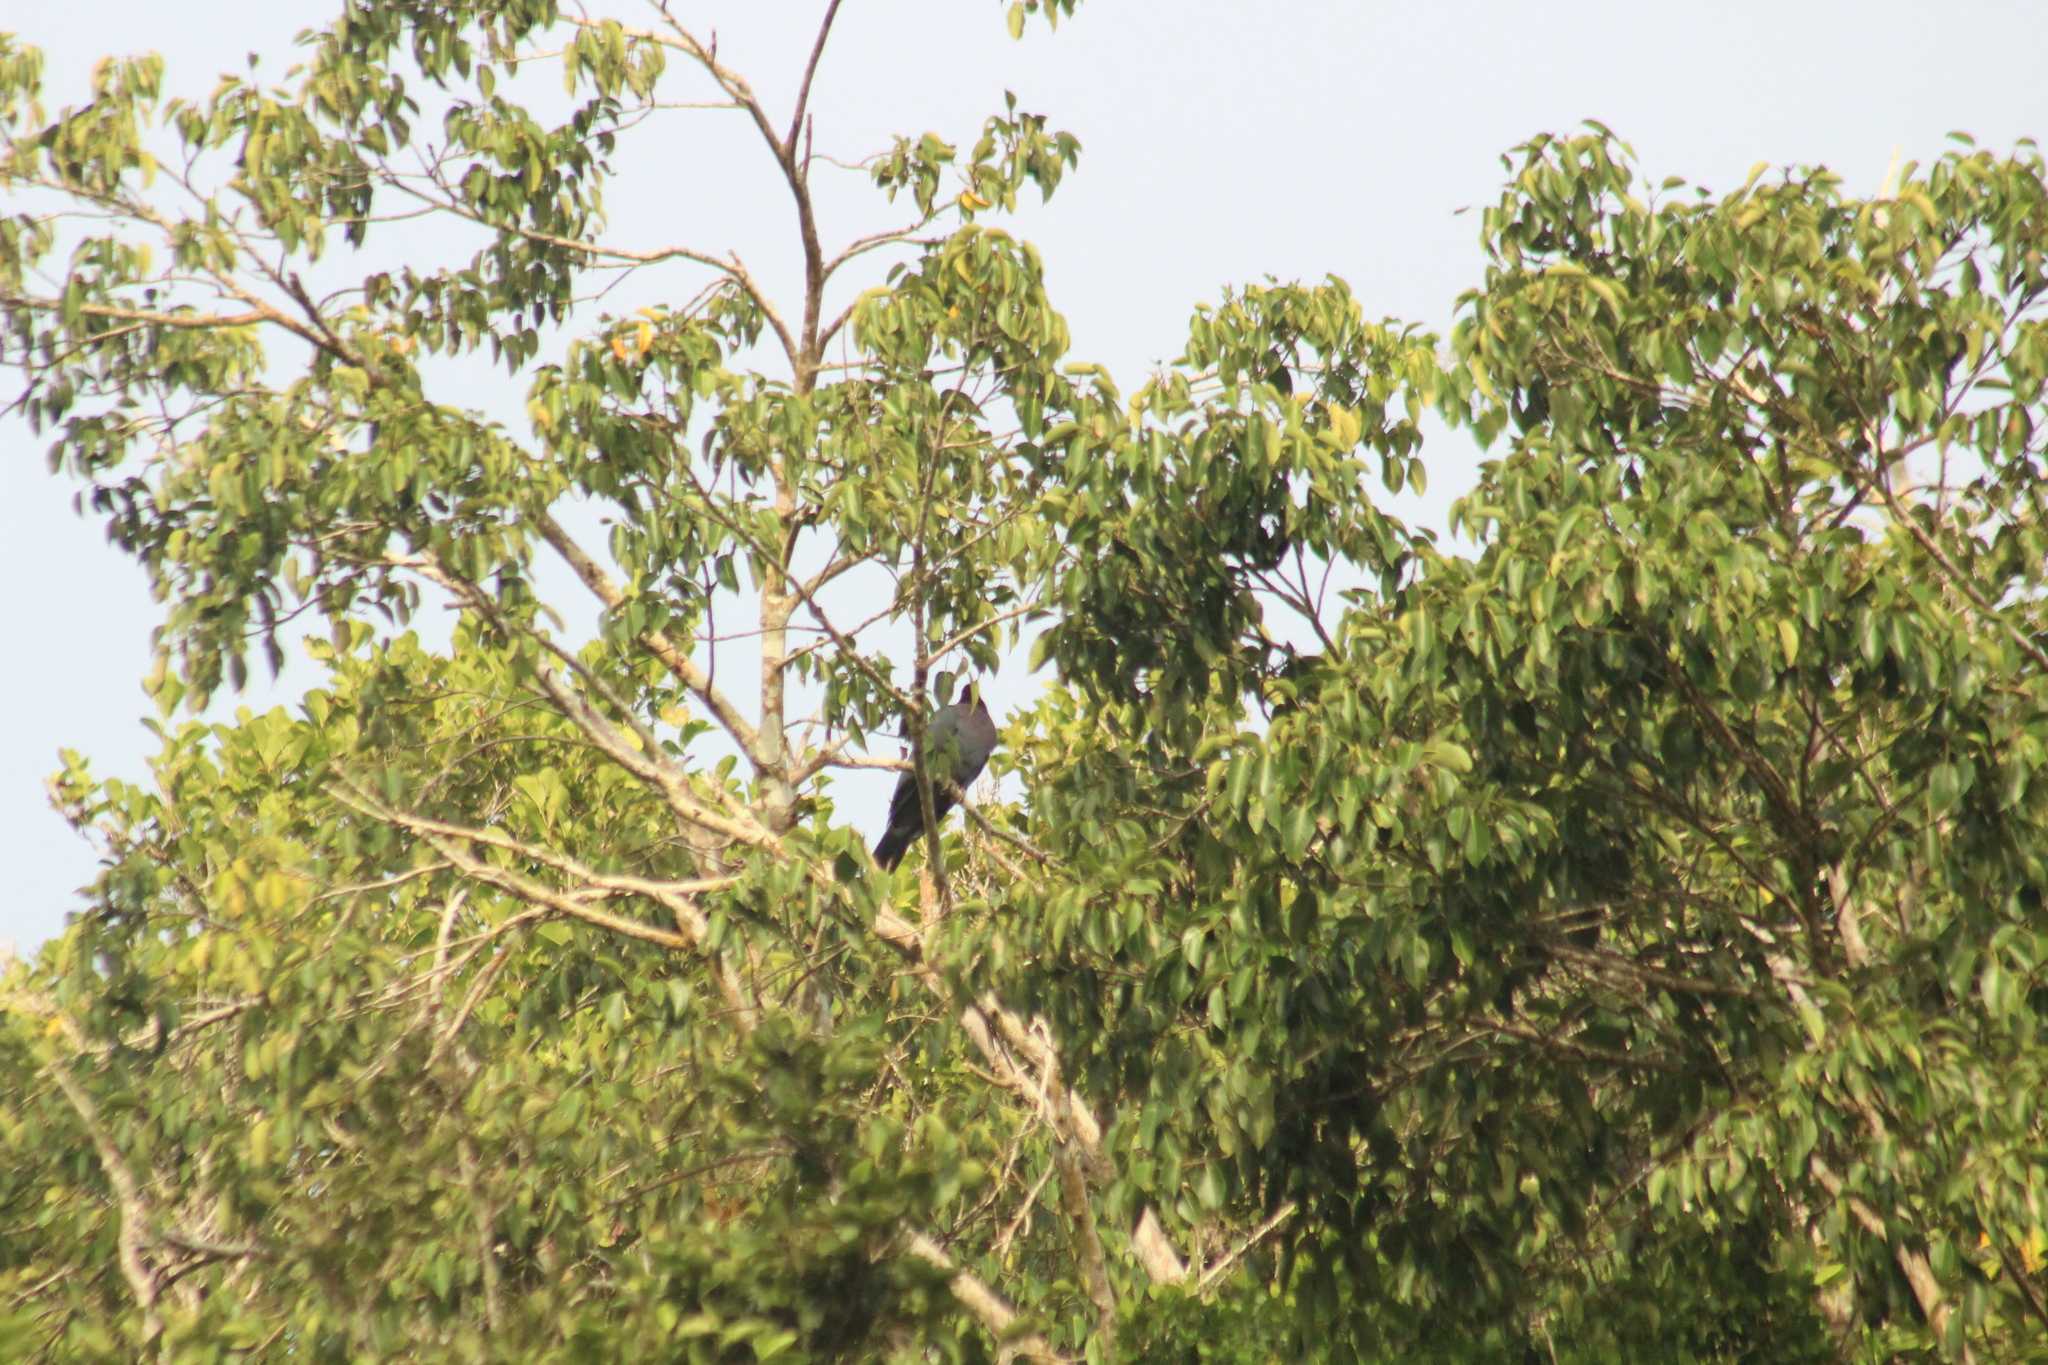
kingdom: Animalia
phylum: Chordata
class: Aves
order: Columbiformes
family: Columbidae
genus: Patagioenas
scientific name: Patagioenas squamosa
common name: Scaly-naped pigeon
